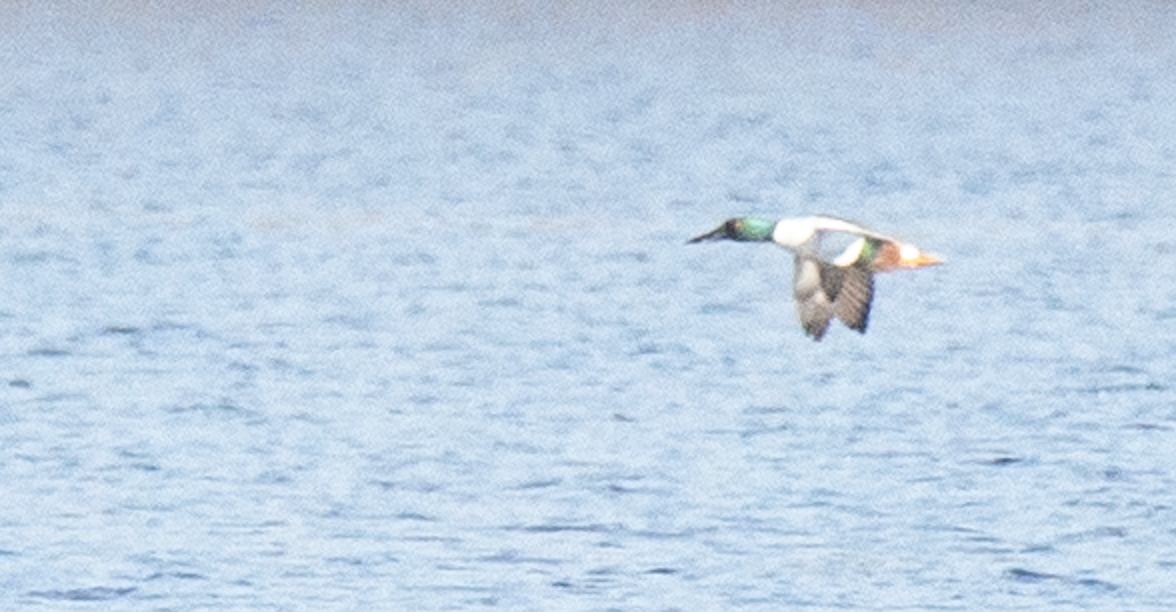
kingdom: Animalia
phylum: Chordata
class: Aves
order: Anseriformes
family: Anatidae
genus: Spatula
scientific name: Spatula clypeata
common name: Northern shoveler
